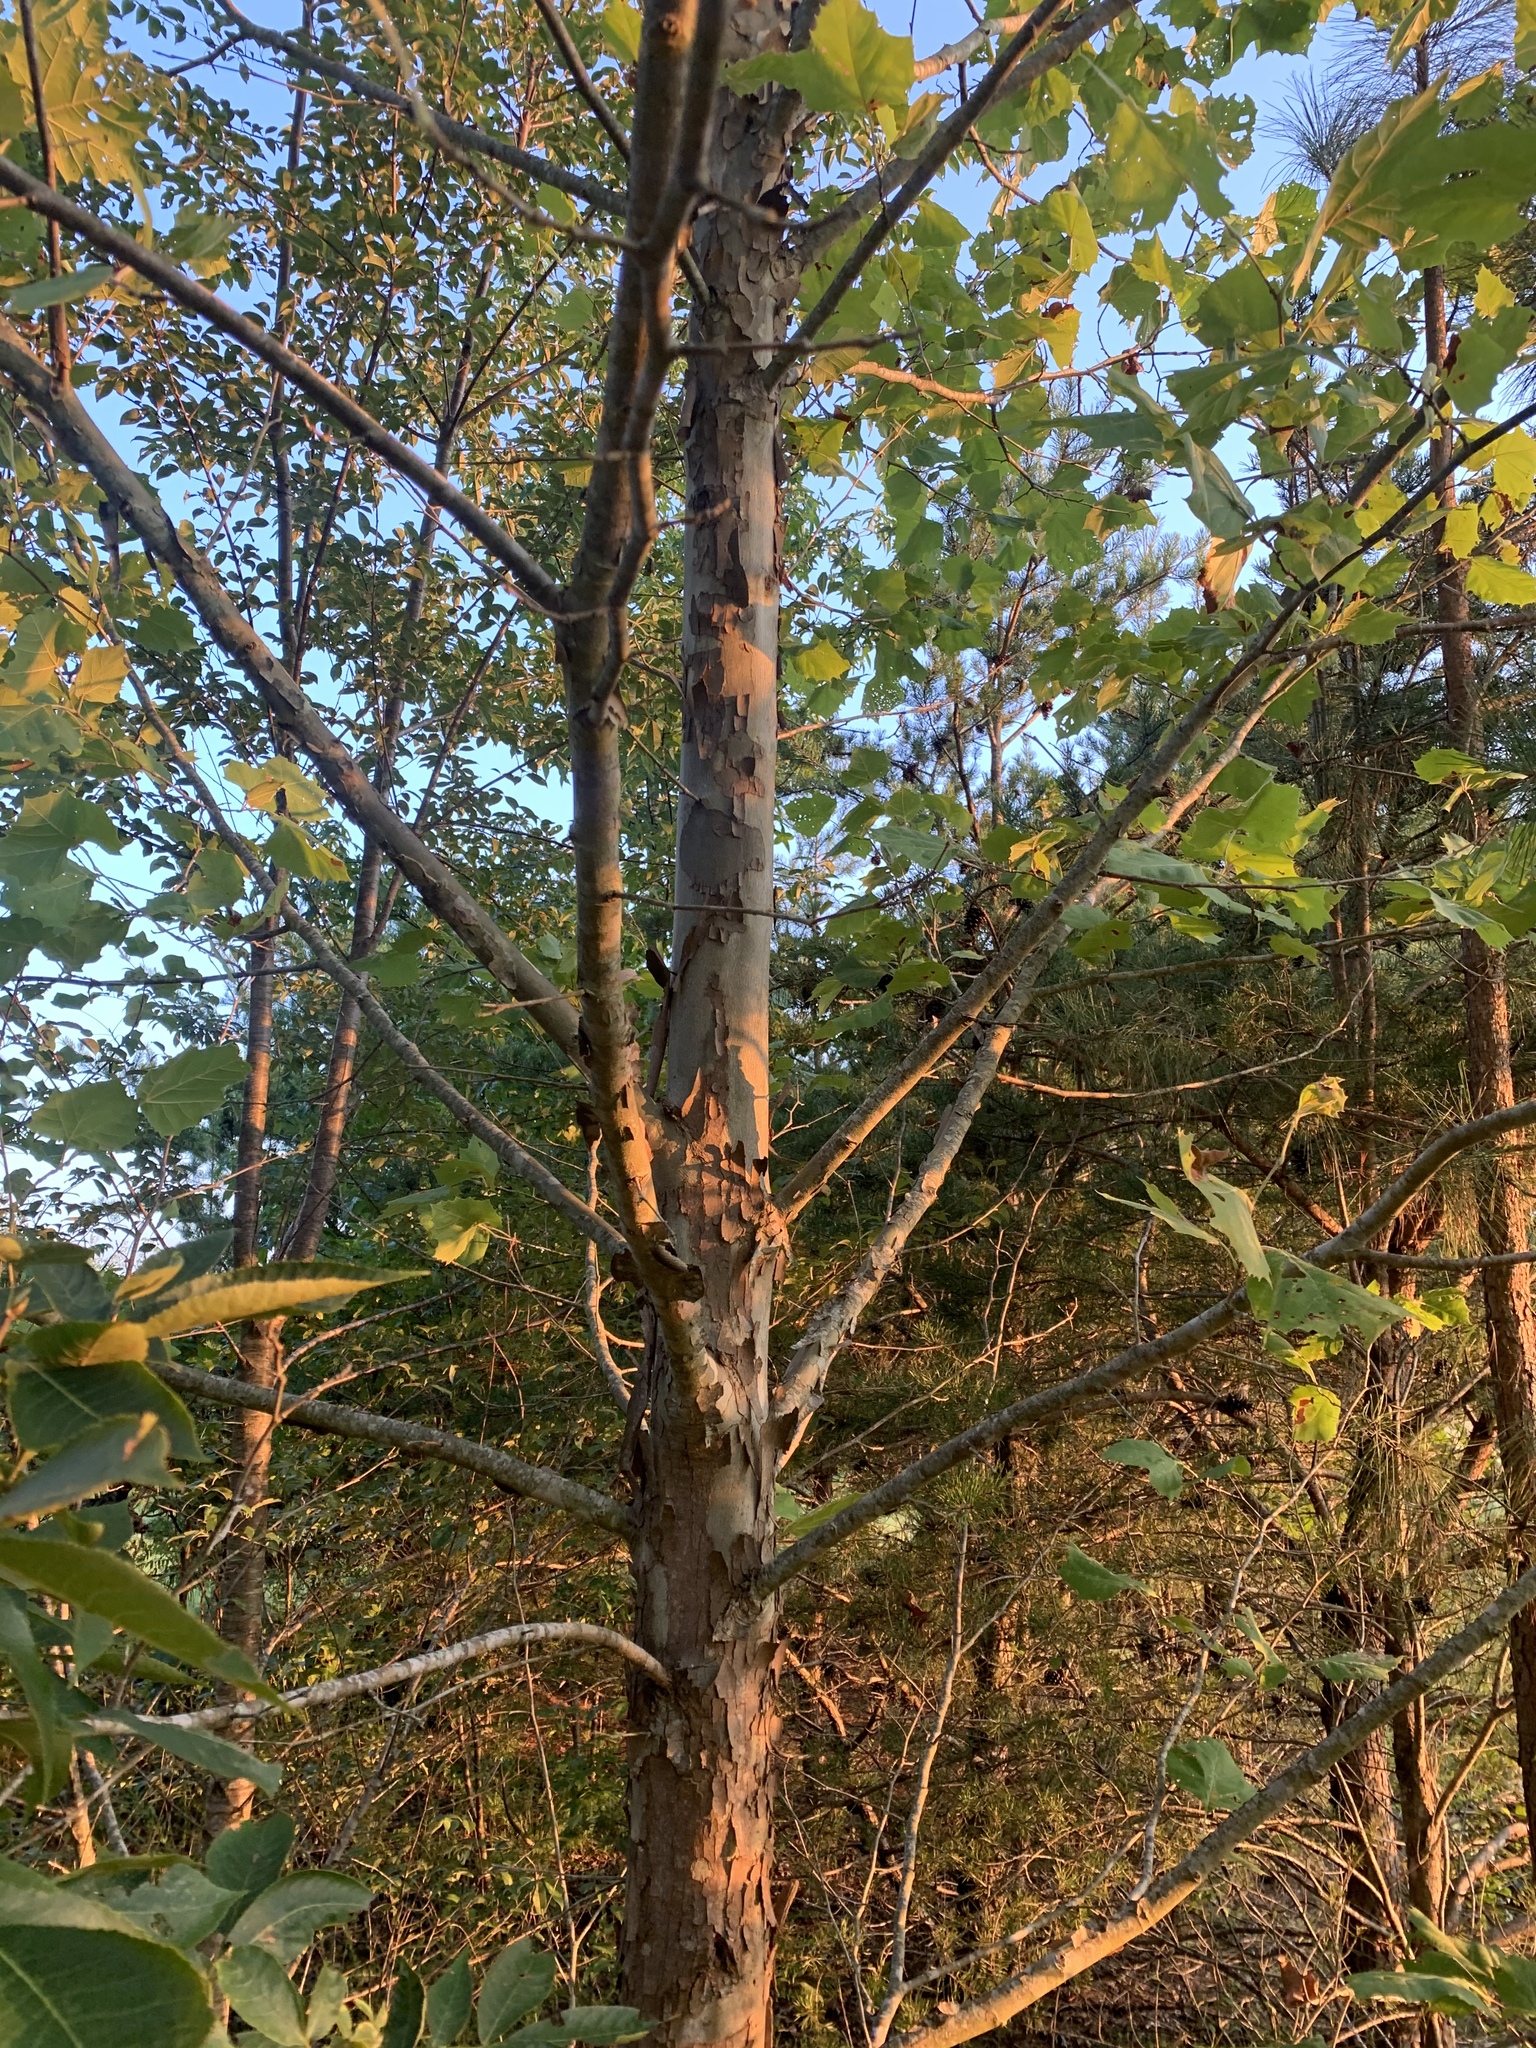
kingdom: Plantae
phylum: Tracheophyta
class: Magnoliopsida
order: Proteales
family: Platanaceae
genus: Platanus
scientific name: Platanus occidentalis
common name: American sycamore
